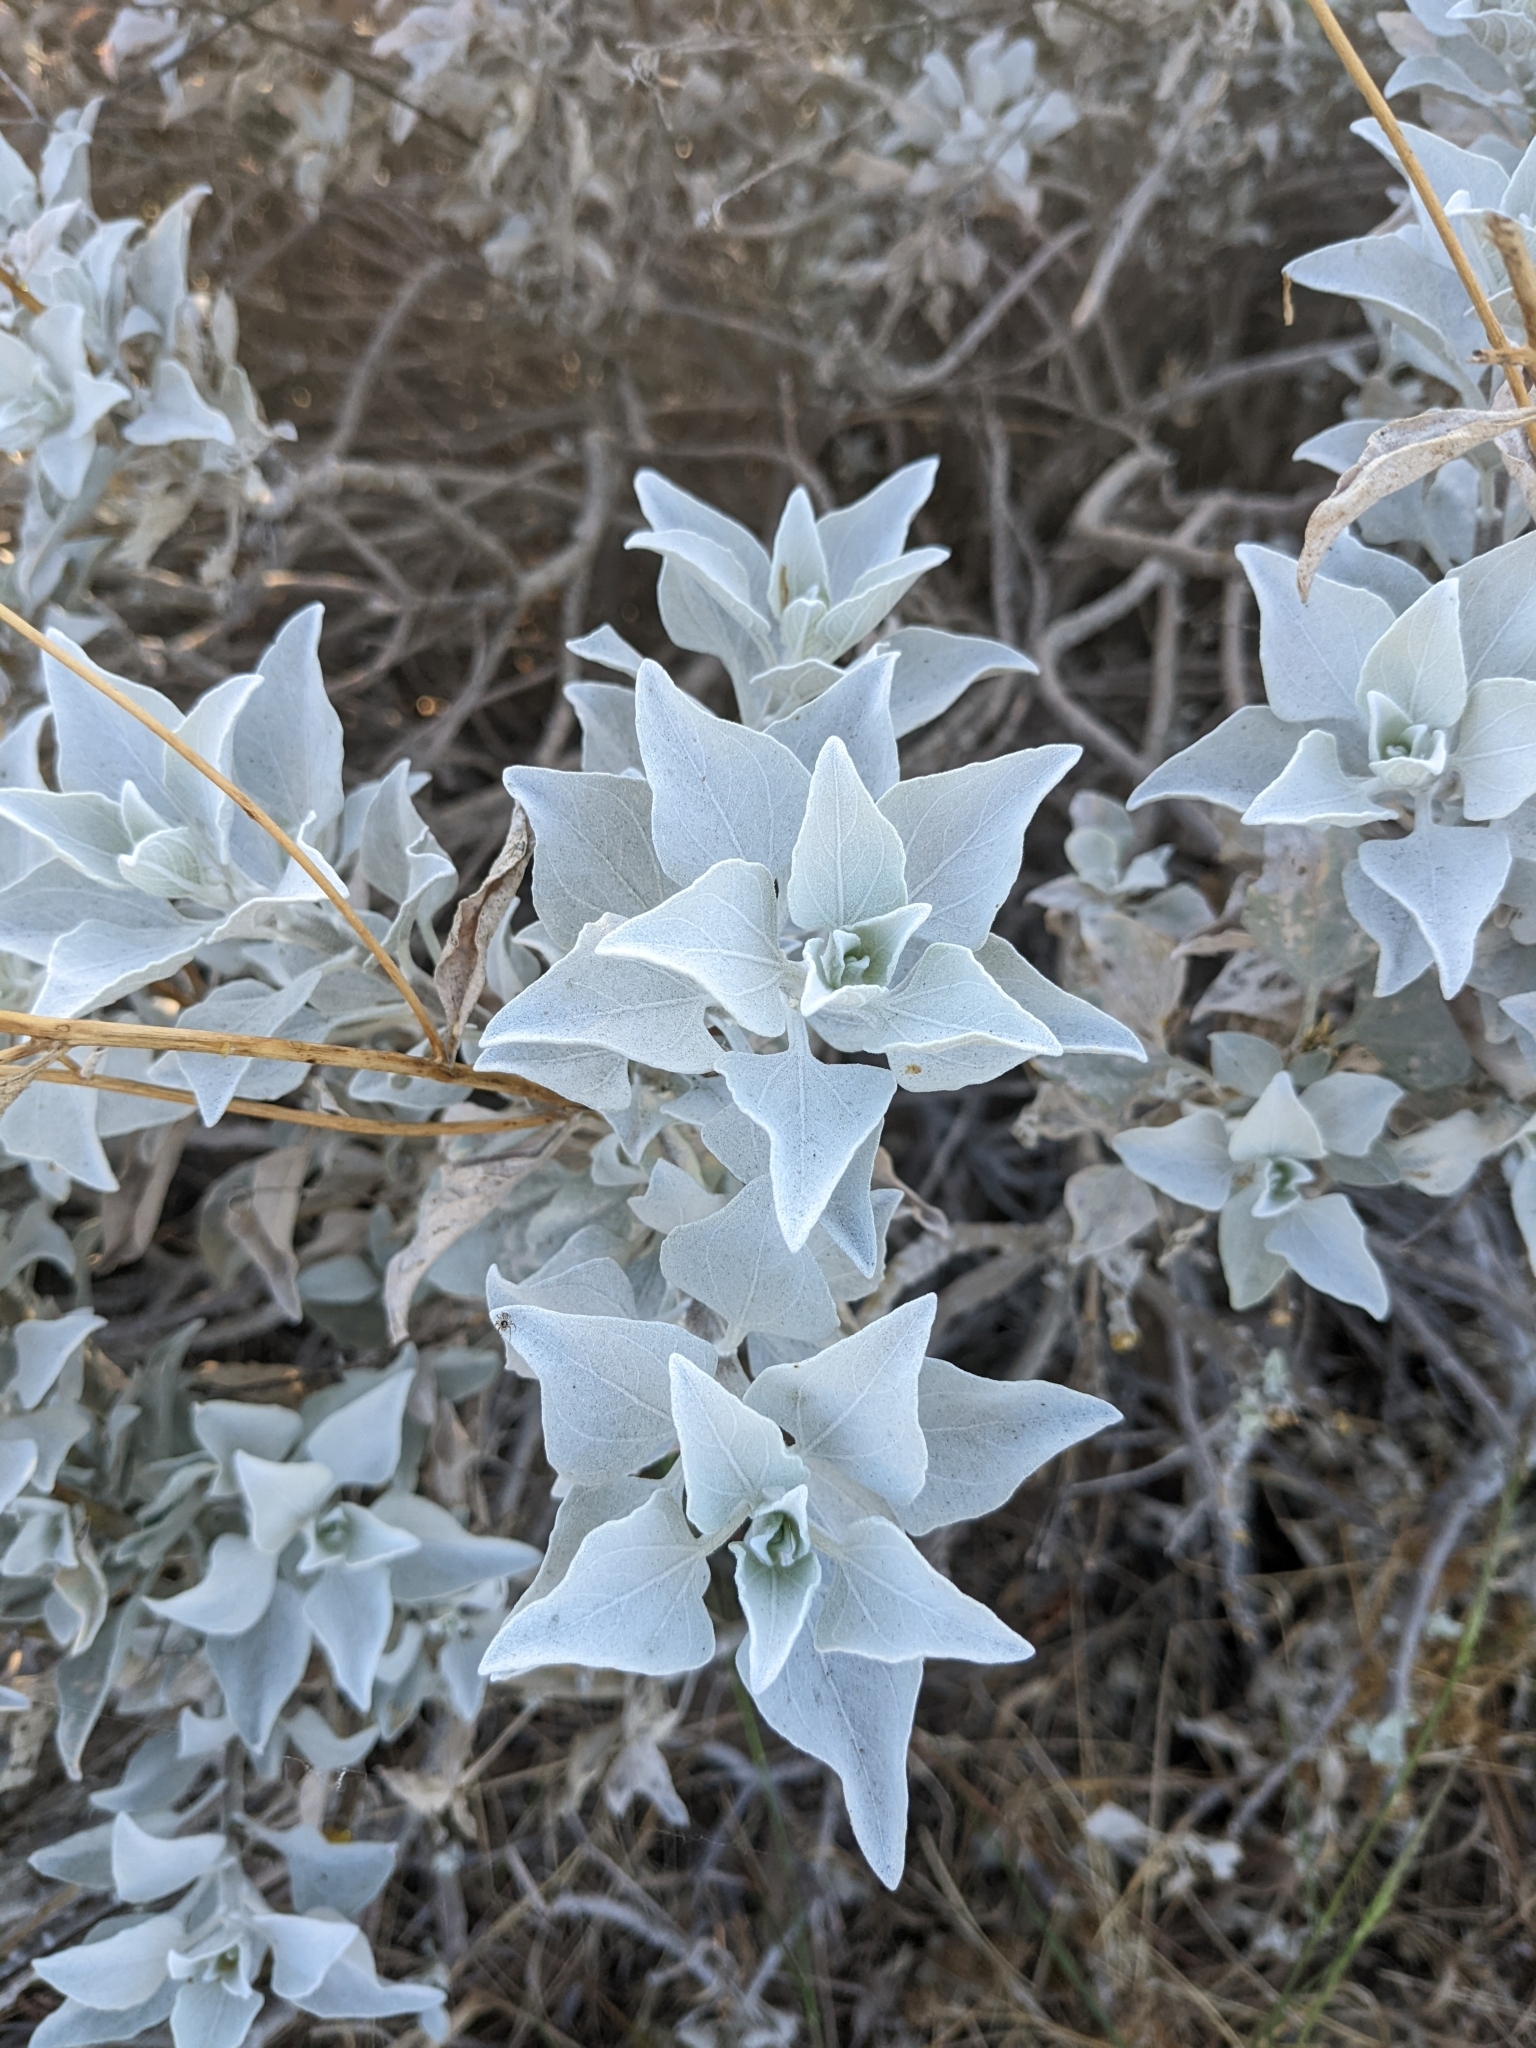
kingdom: Plantae
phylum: Tracheophyta
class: Magnoliopsida
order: Asterales
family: Asteraceae
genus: Encelia
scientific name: Encelia farinosa
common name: Brittlebush
